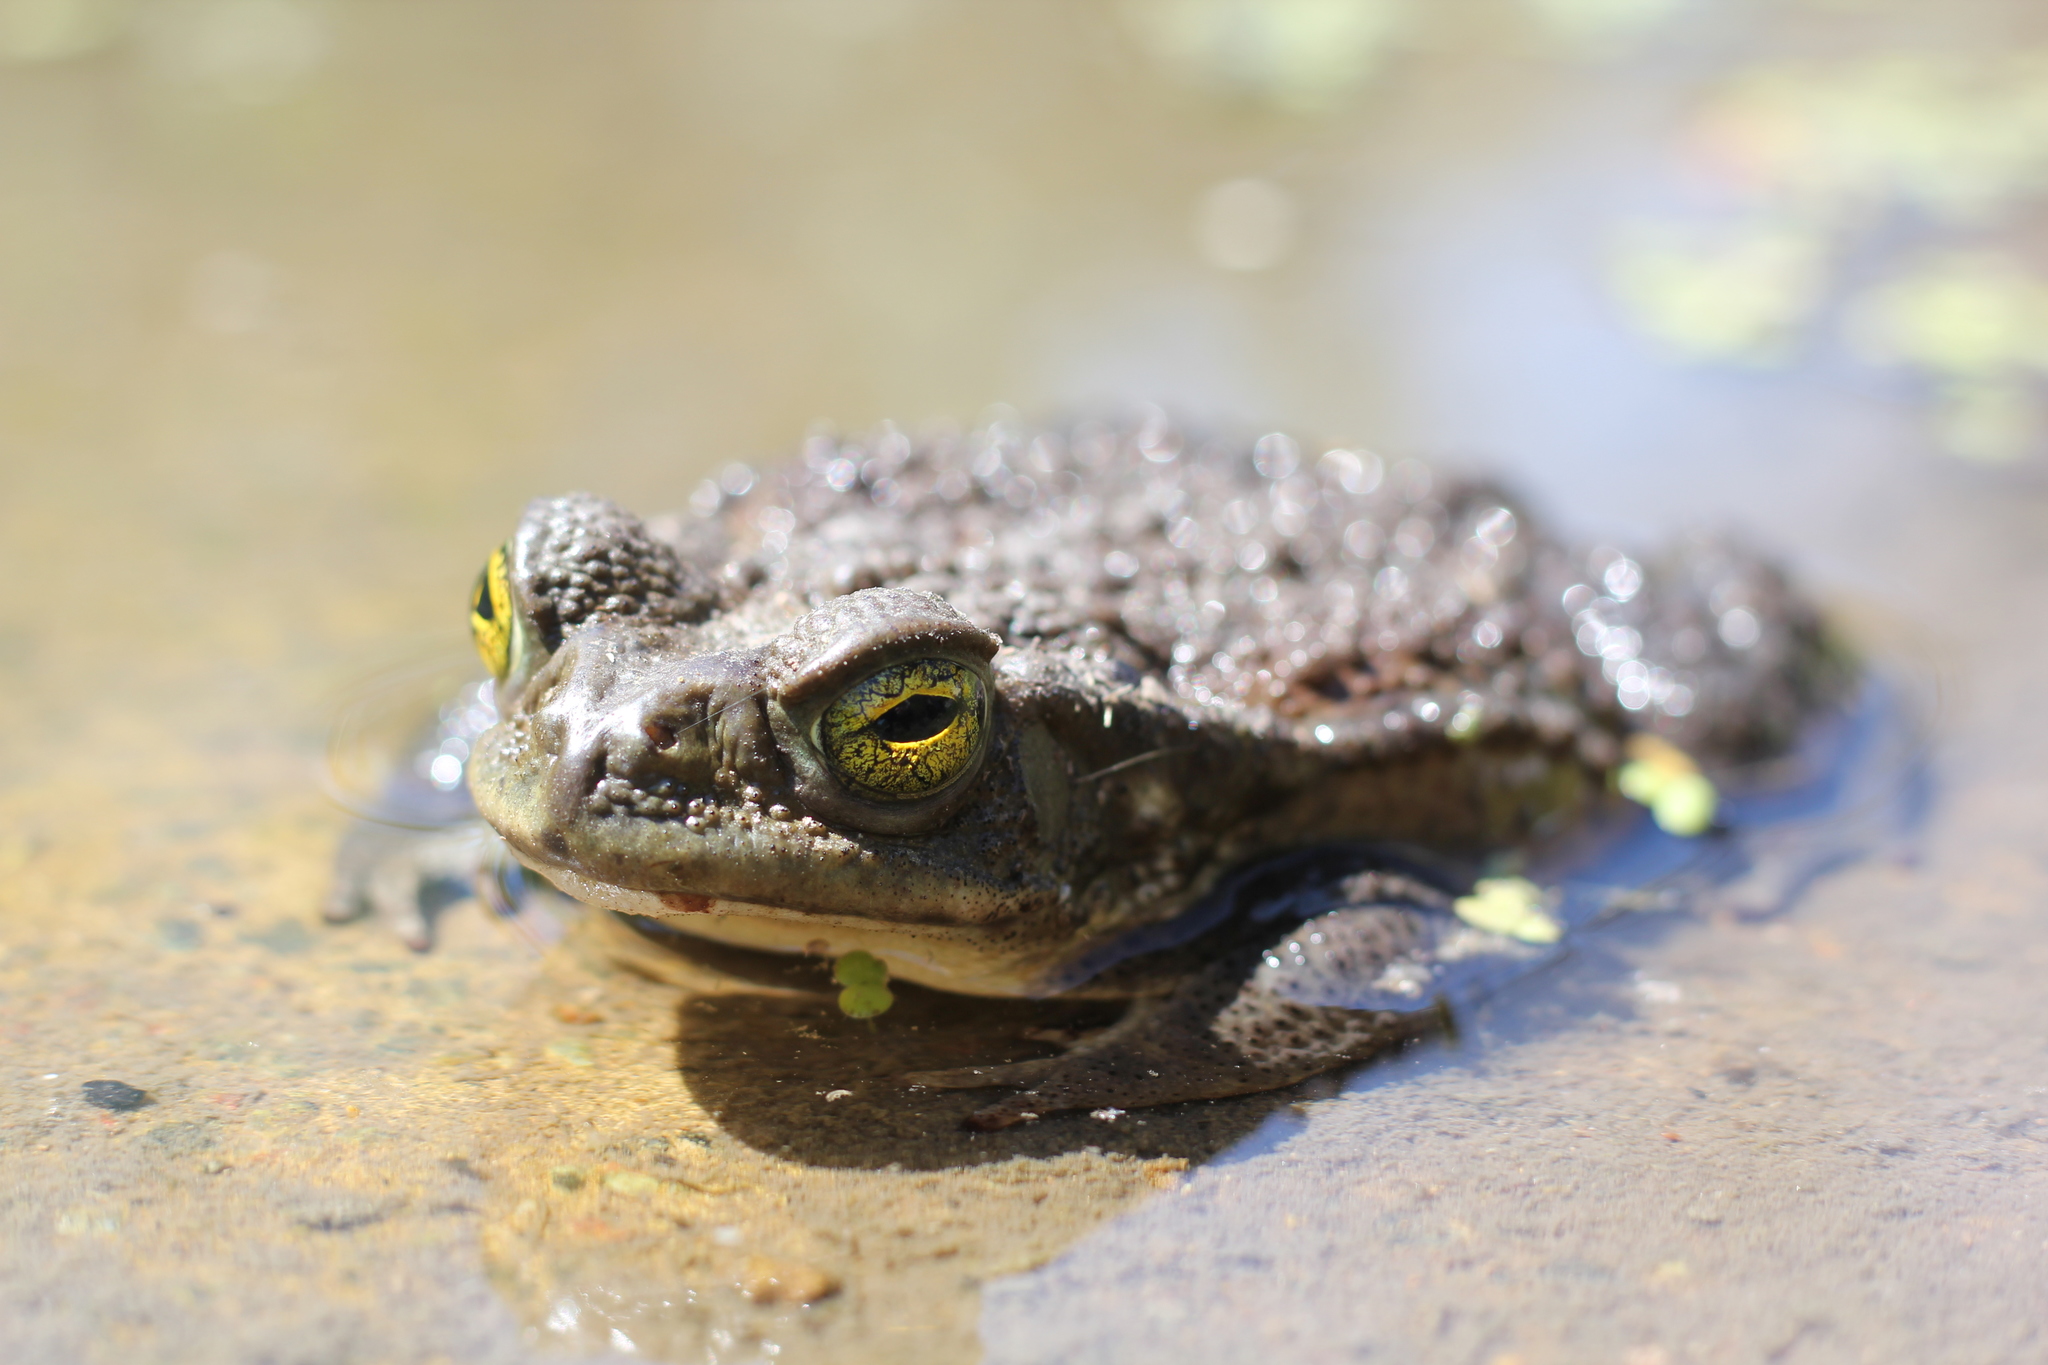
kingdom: Animalia
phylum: Chordata
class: Amphibia
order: Anura
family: Bufonidae
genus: Rhinella
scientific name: Rhinella arenarum
